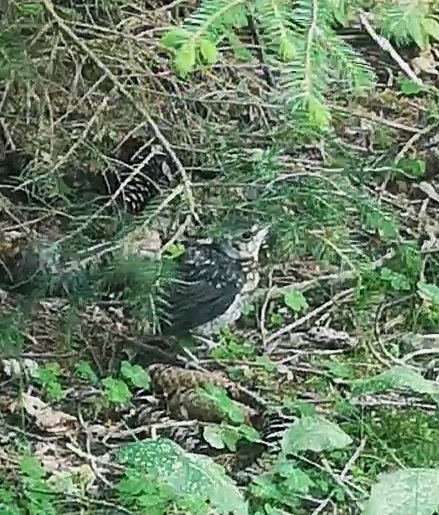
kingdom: Animalia
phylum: Chordata
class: Aves
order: Passeriformes
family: Turdidae
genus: Turdus
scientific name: Turdus pilaris
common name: Fieldfare
